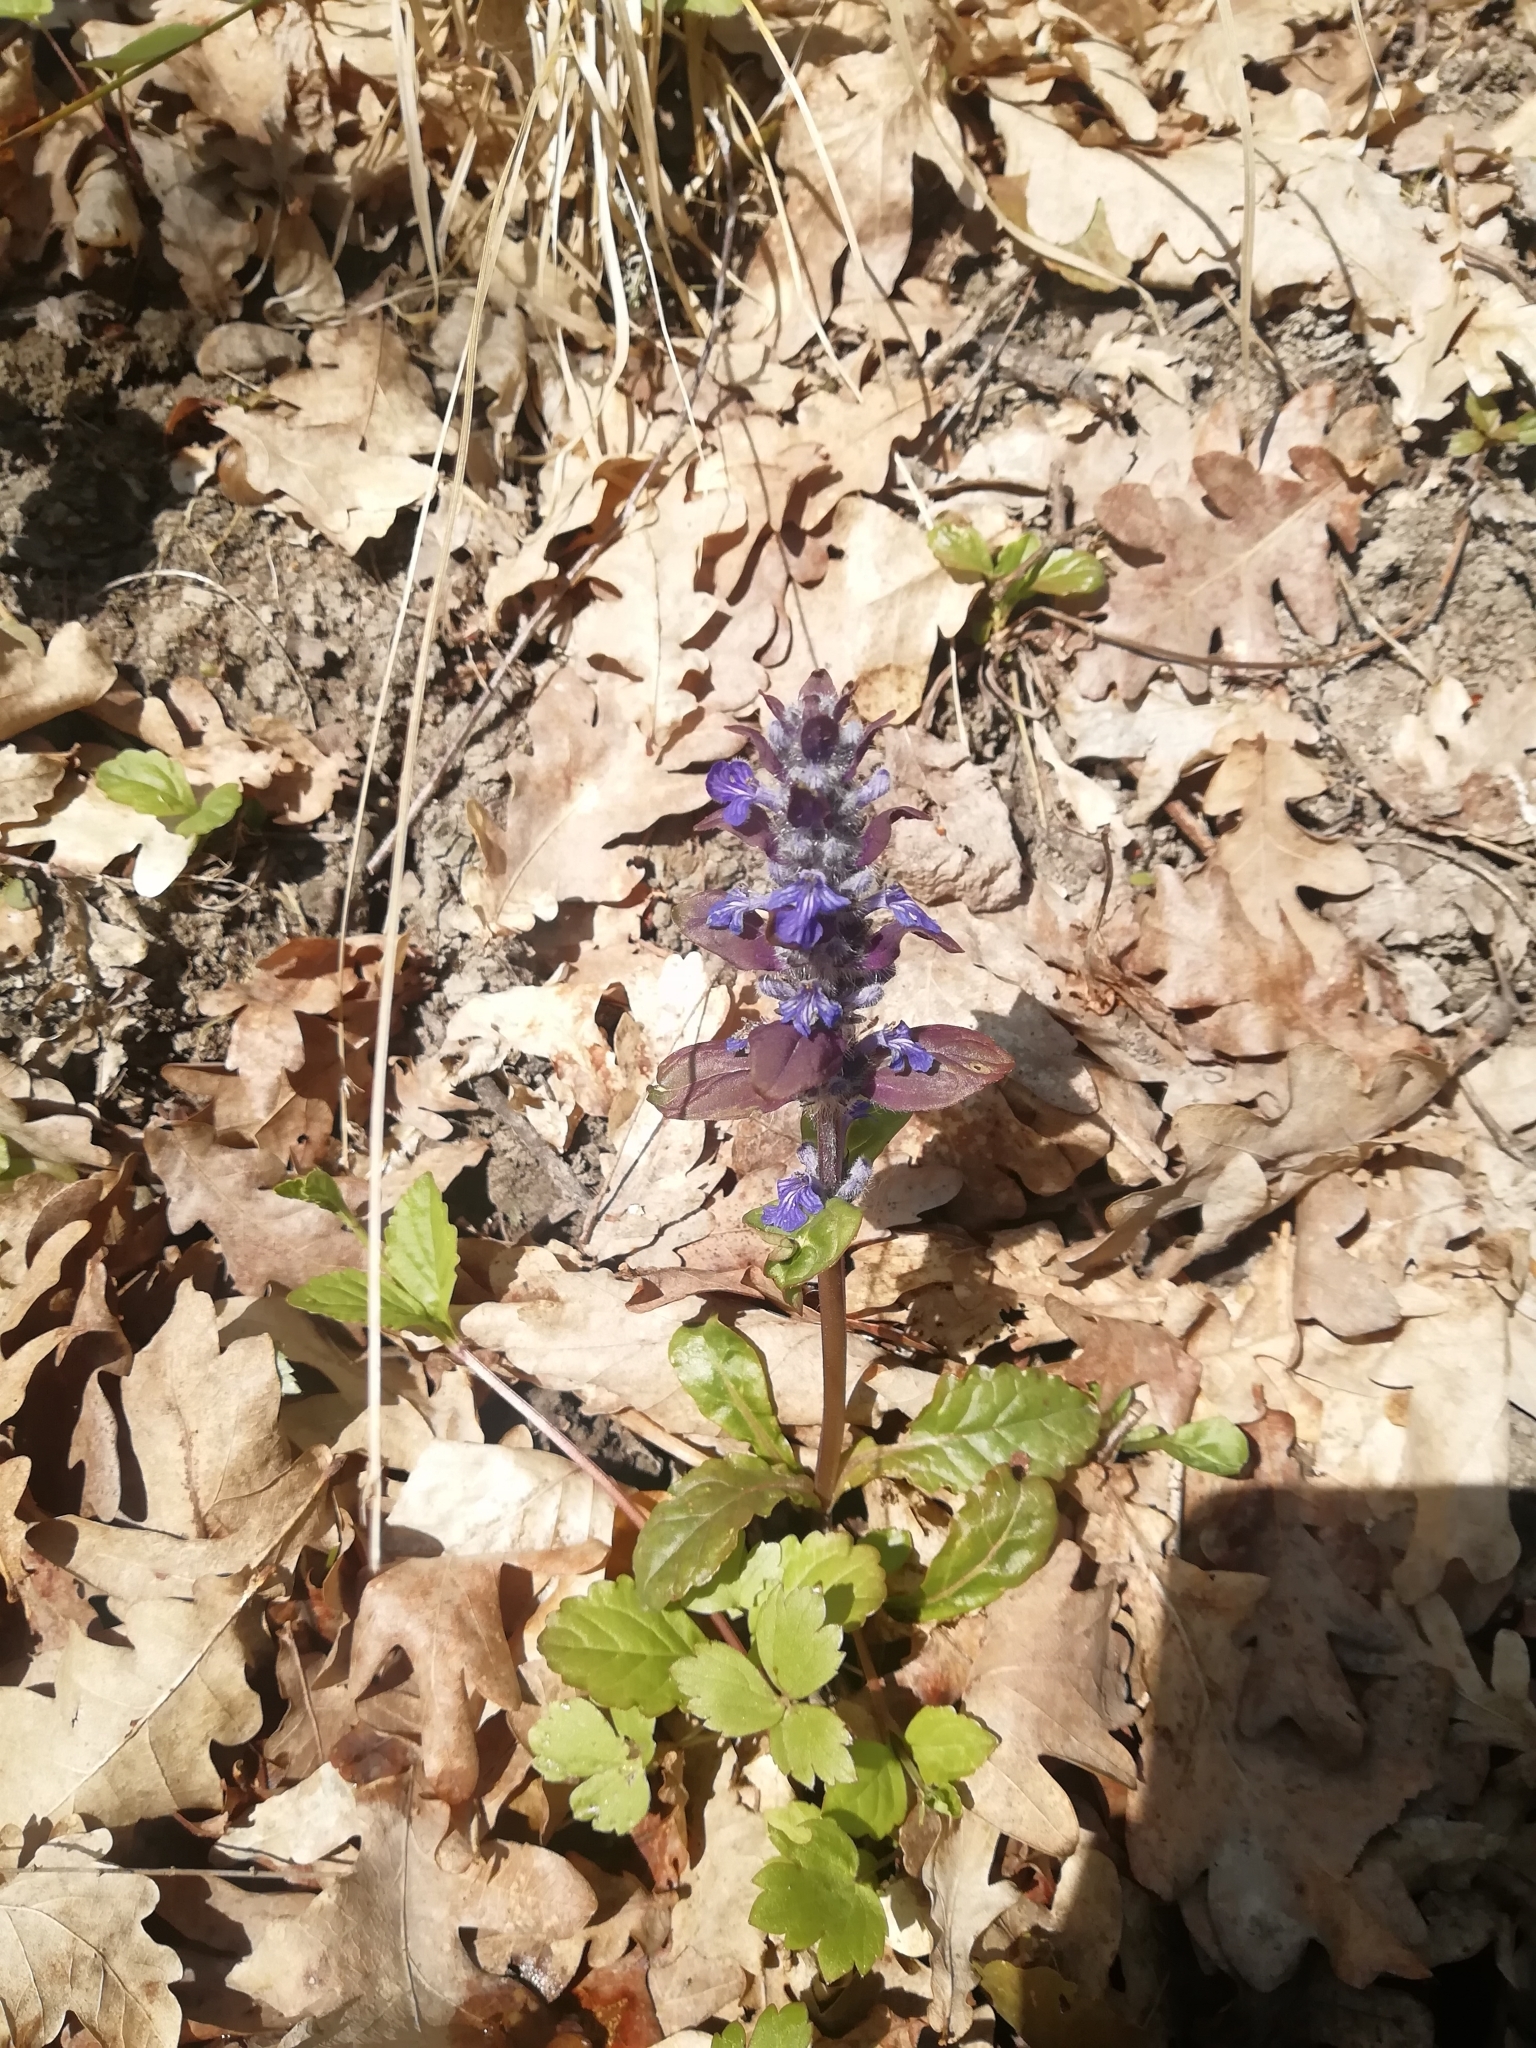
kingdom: Plantae
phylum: Tracheophyta
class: Magnoliopsida
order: Lamiales
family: Lamiaceae
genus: Ajuga
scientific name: Ajuga reptans
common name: Bugle
